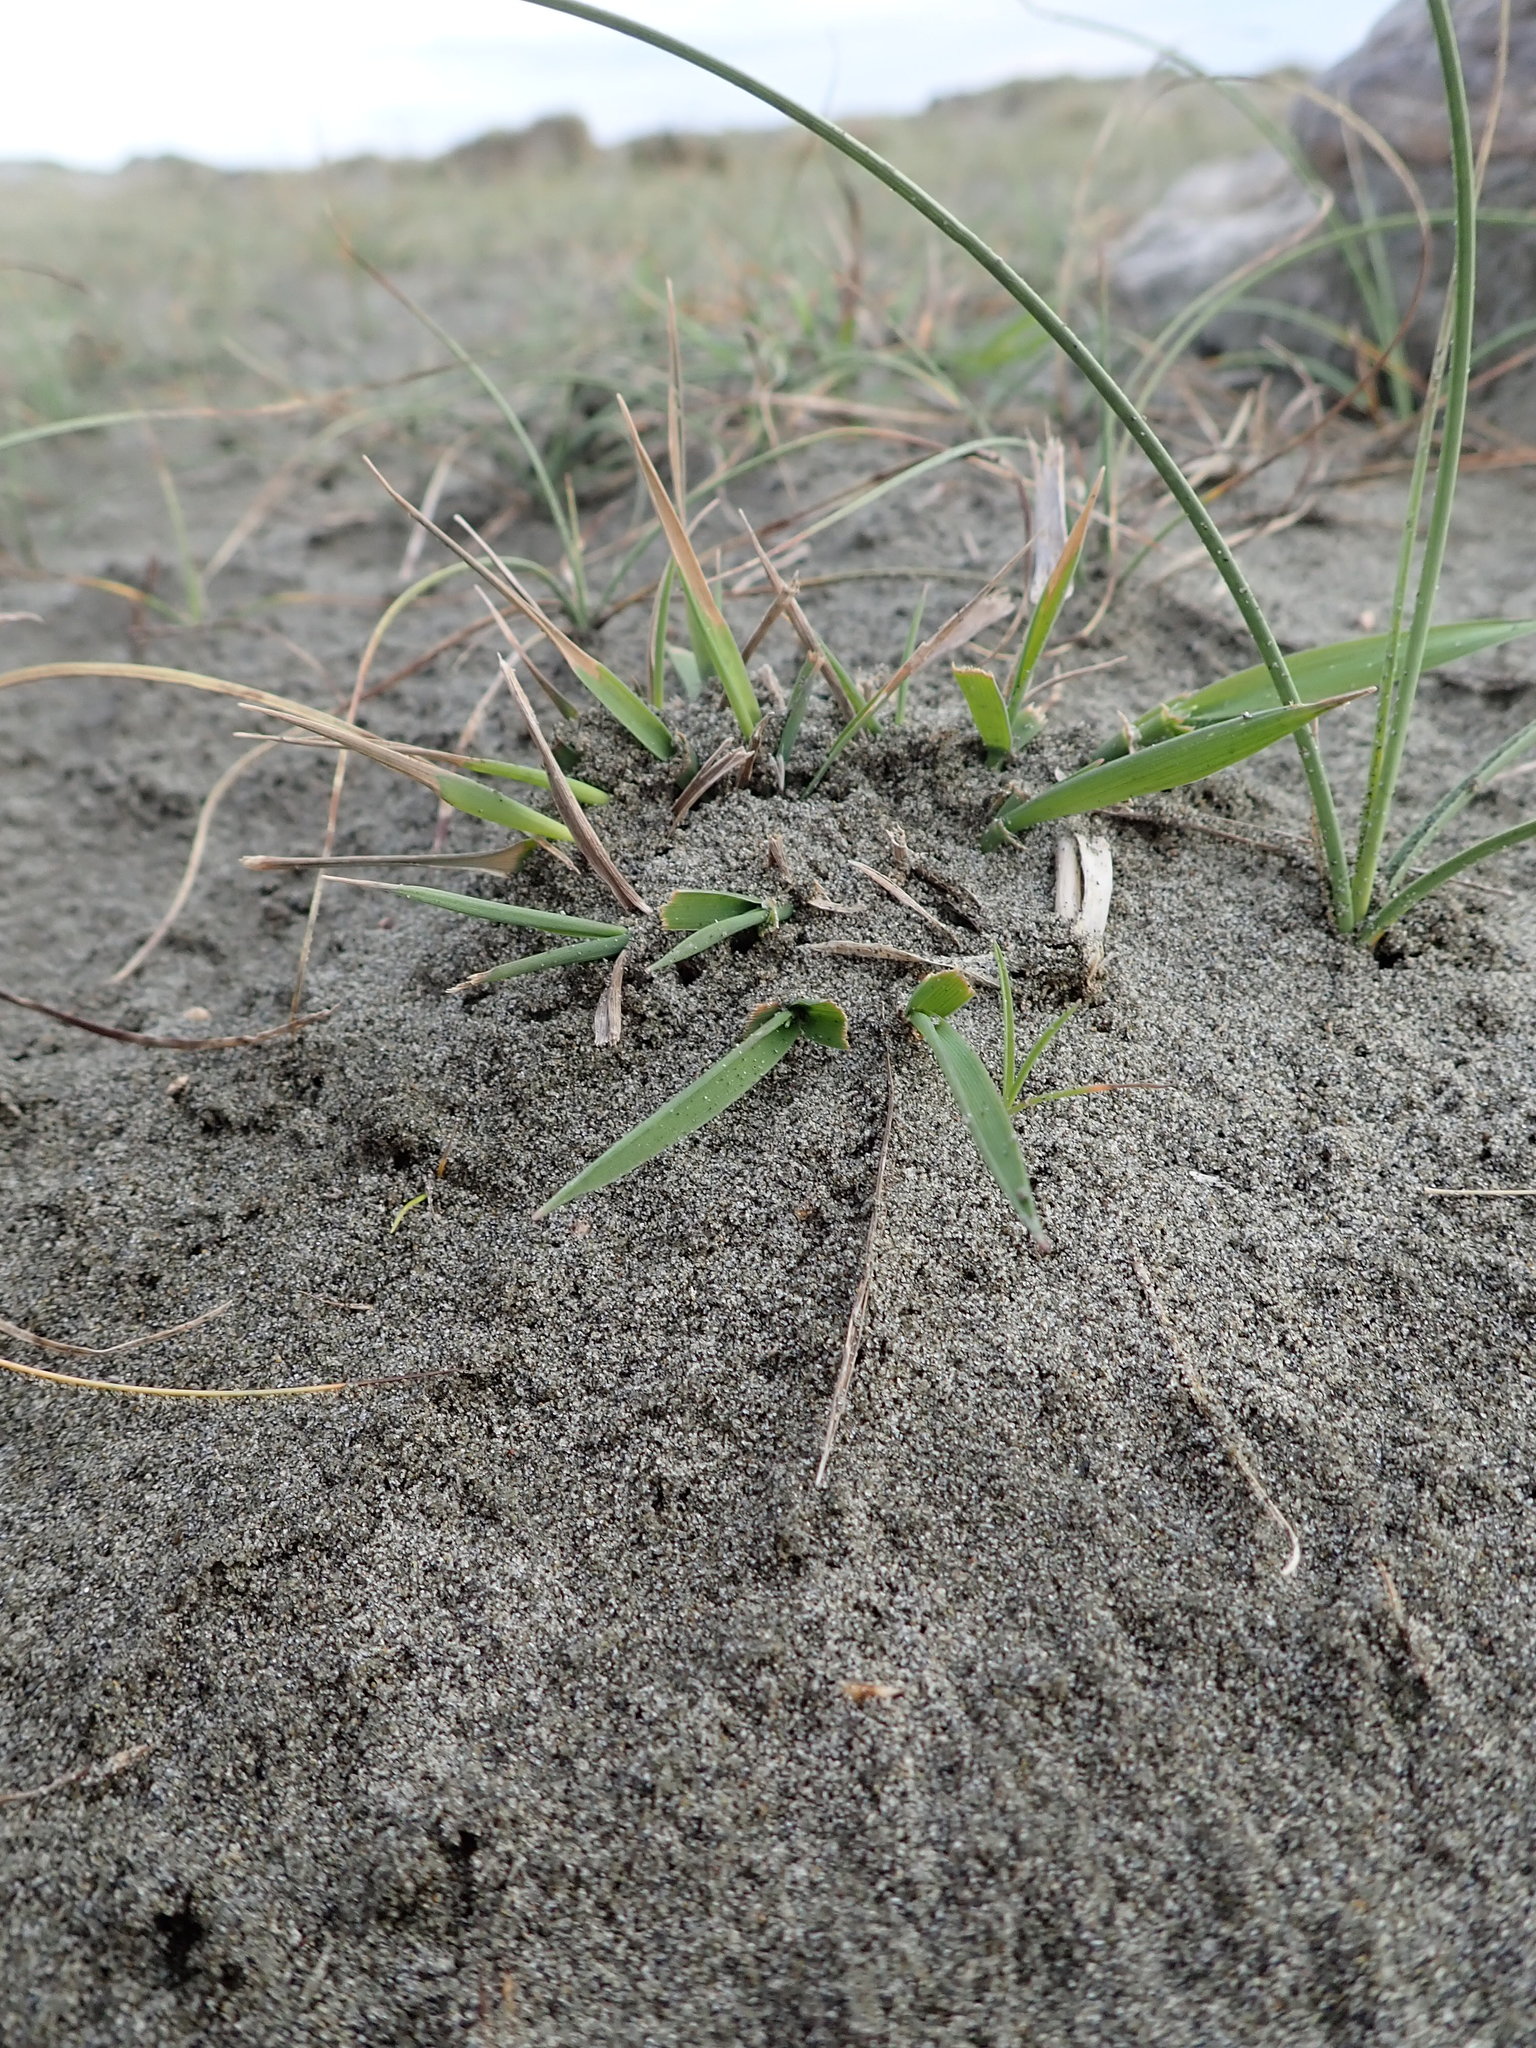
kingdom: Plantae
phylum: Tracheophyta
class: Liliopsida
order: Poales
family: Poaceae
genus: Lachnagrostis
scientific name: Lachnagrostis billardierei
